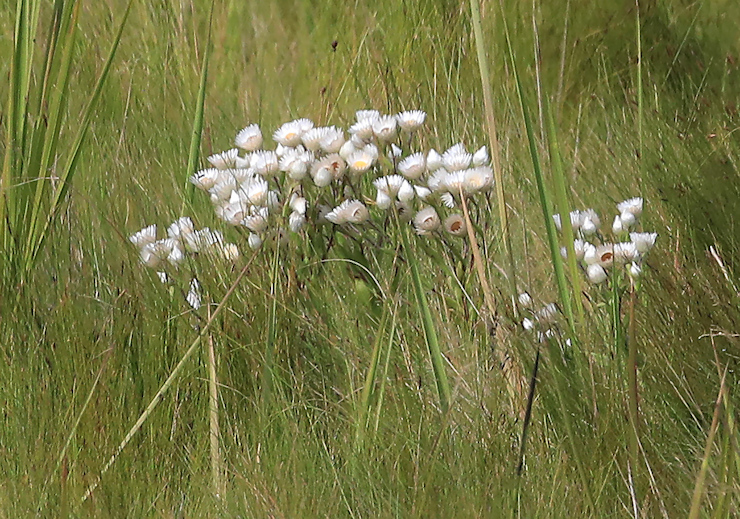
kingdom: Plantae
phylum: Tracheophyta
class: Magnoliopsida
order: Asterales
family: Asteraceae
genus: Helichrysum
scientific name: Helichrysum adenocarpum
